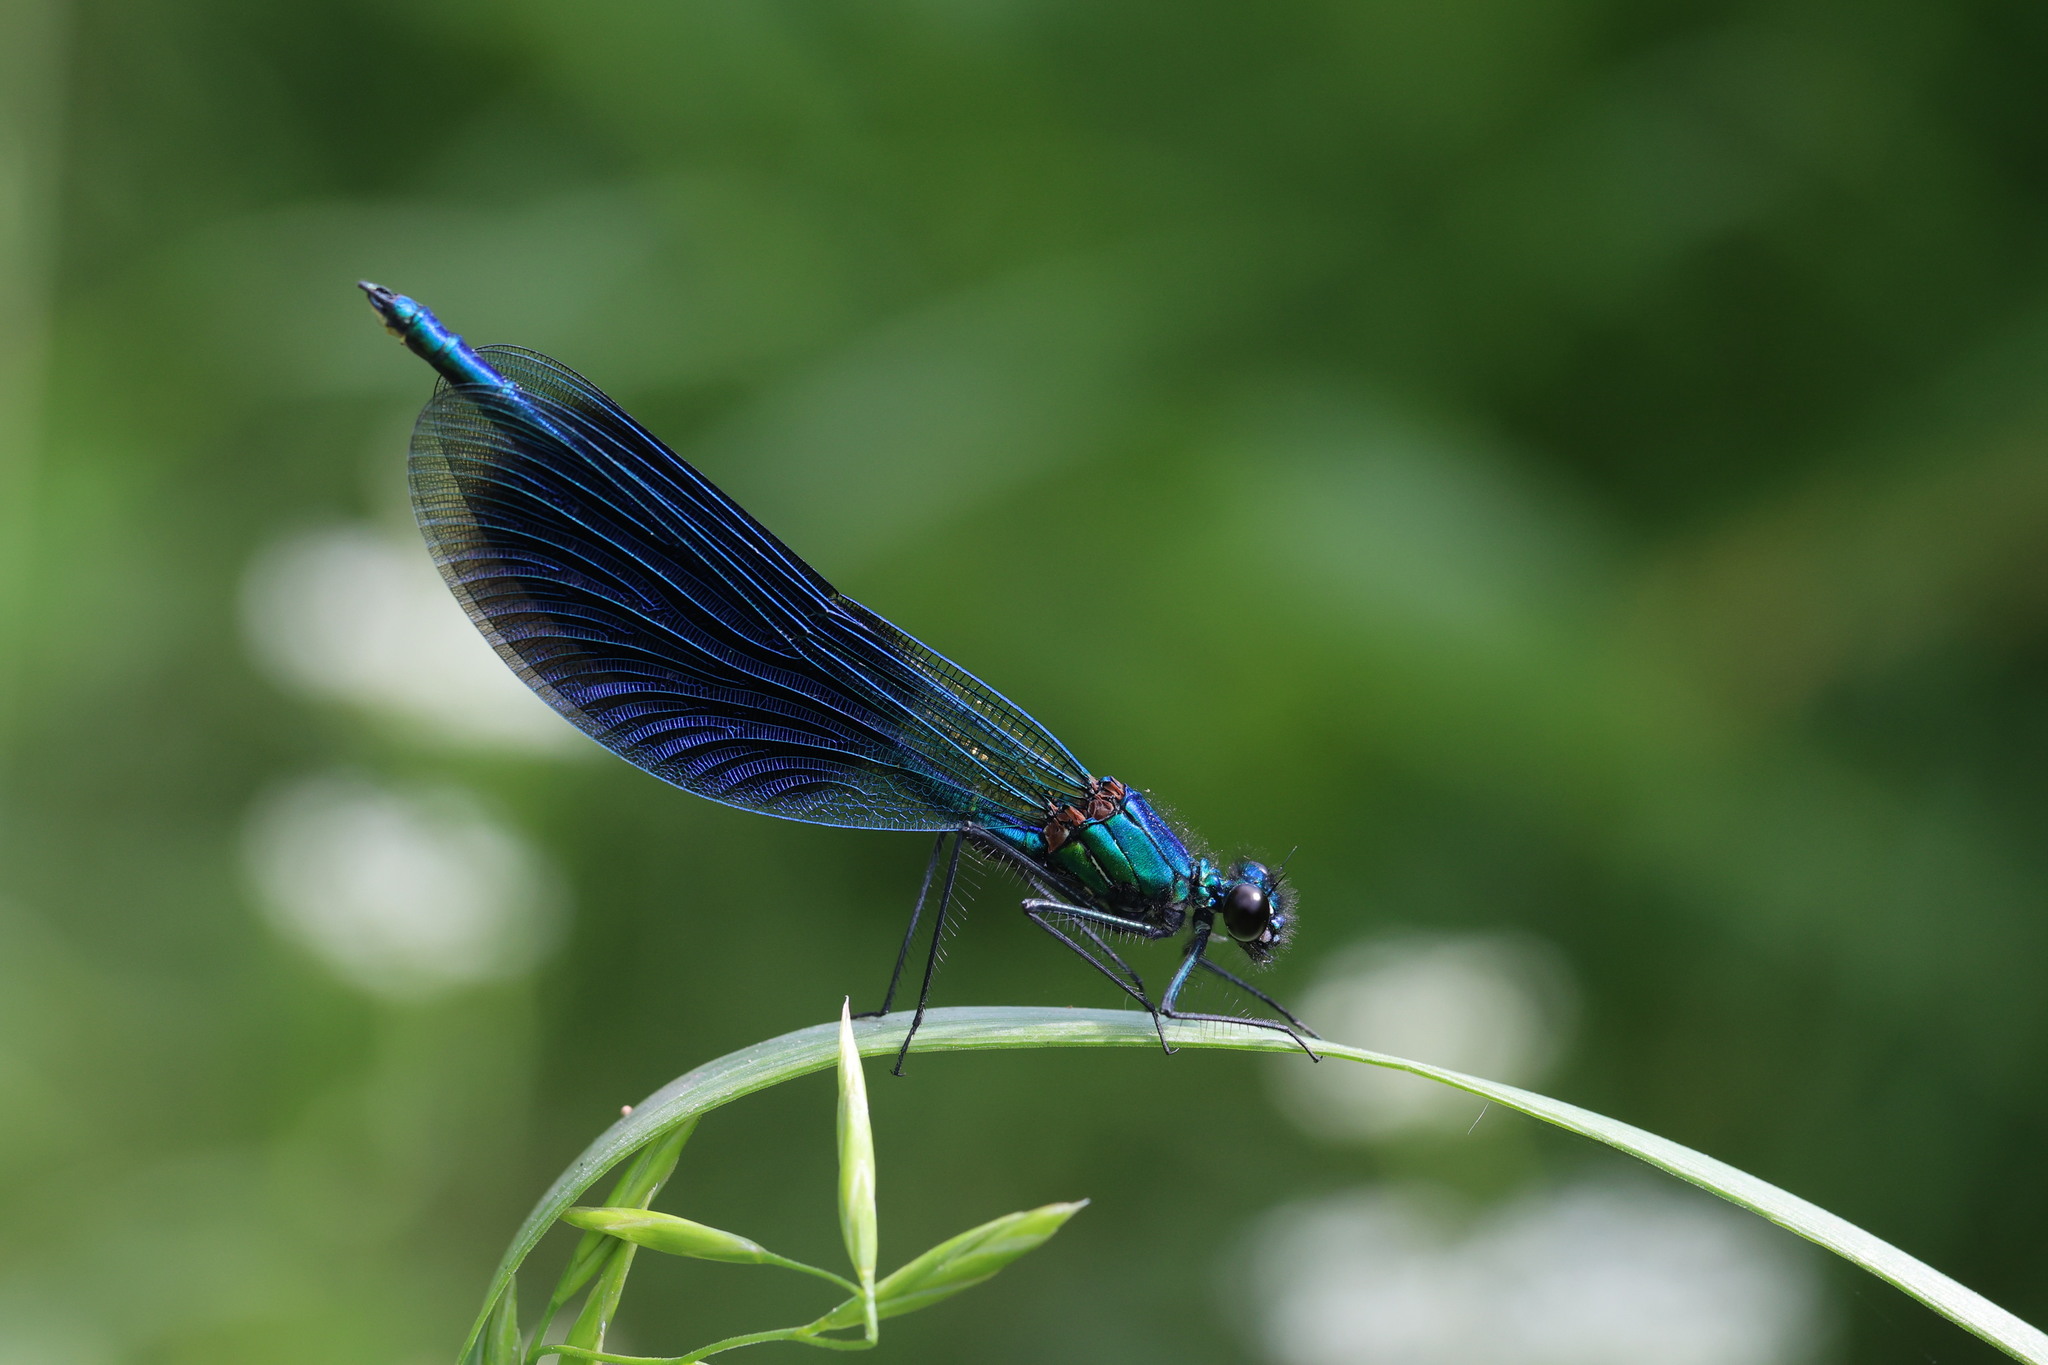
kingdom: Animalia
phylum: Arthropoda
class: Insecta
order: Odonata
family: Calopterygidae
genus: Calopteryx
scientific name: Calopteryx splendens
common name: Banded demoiselle
